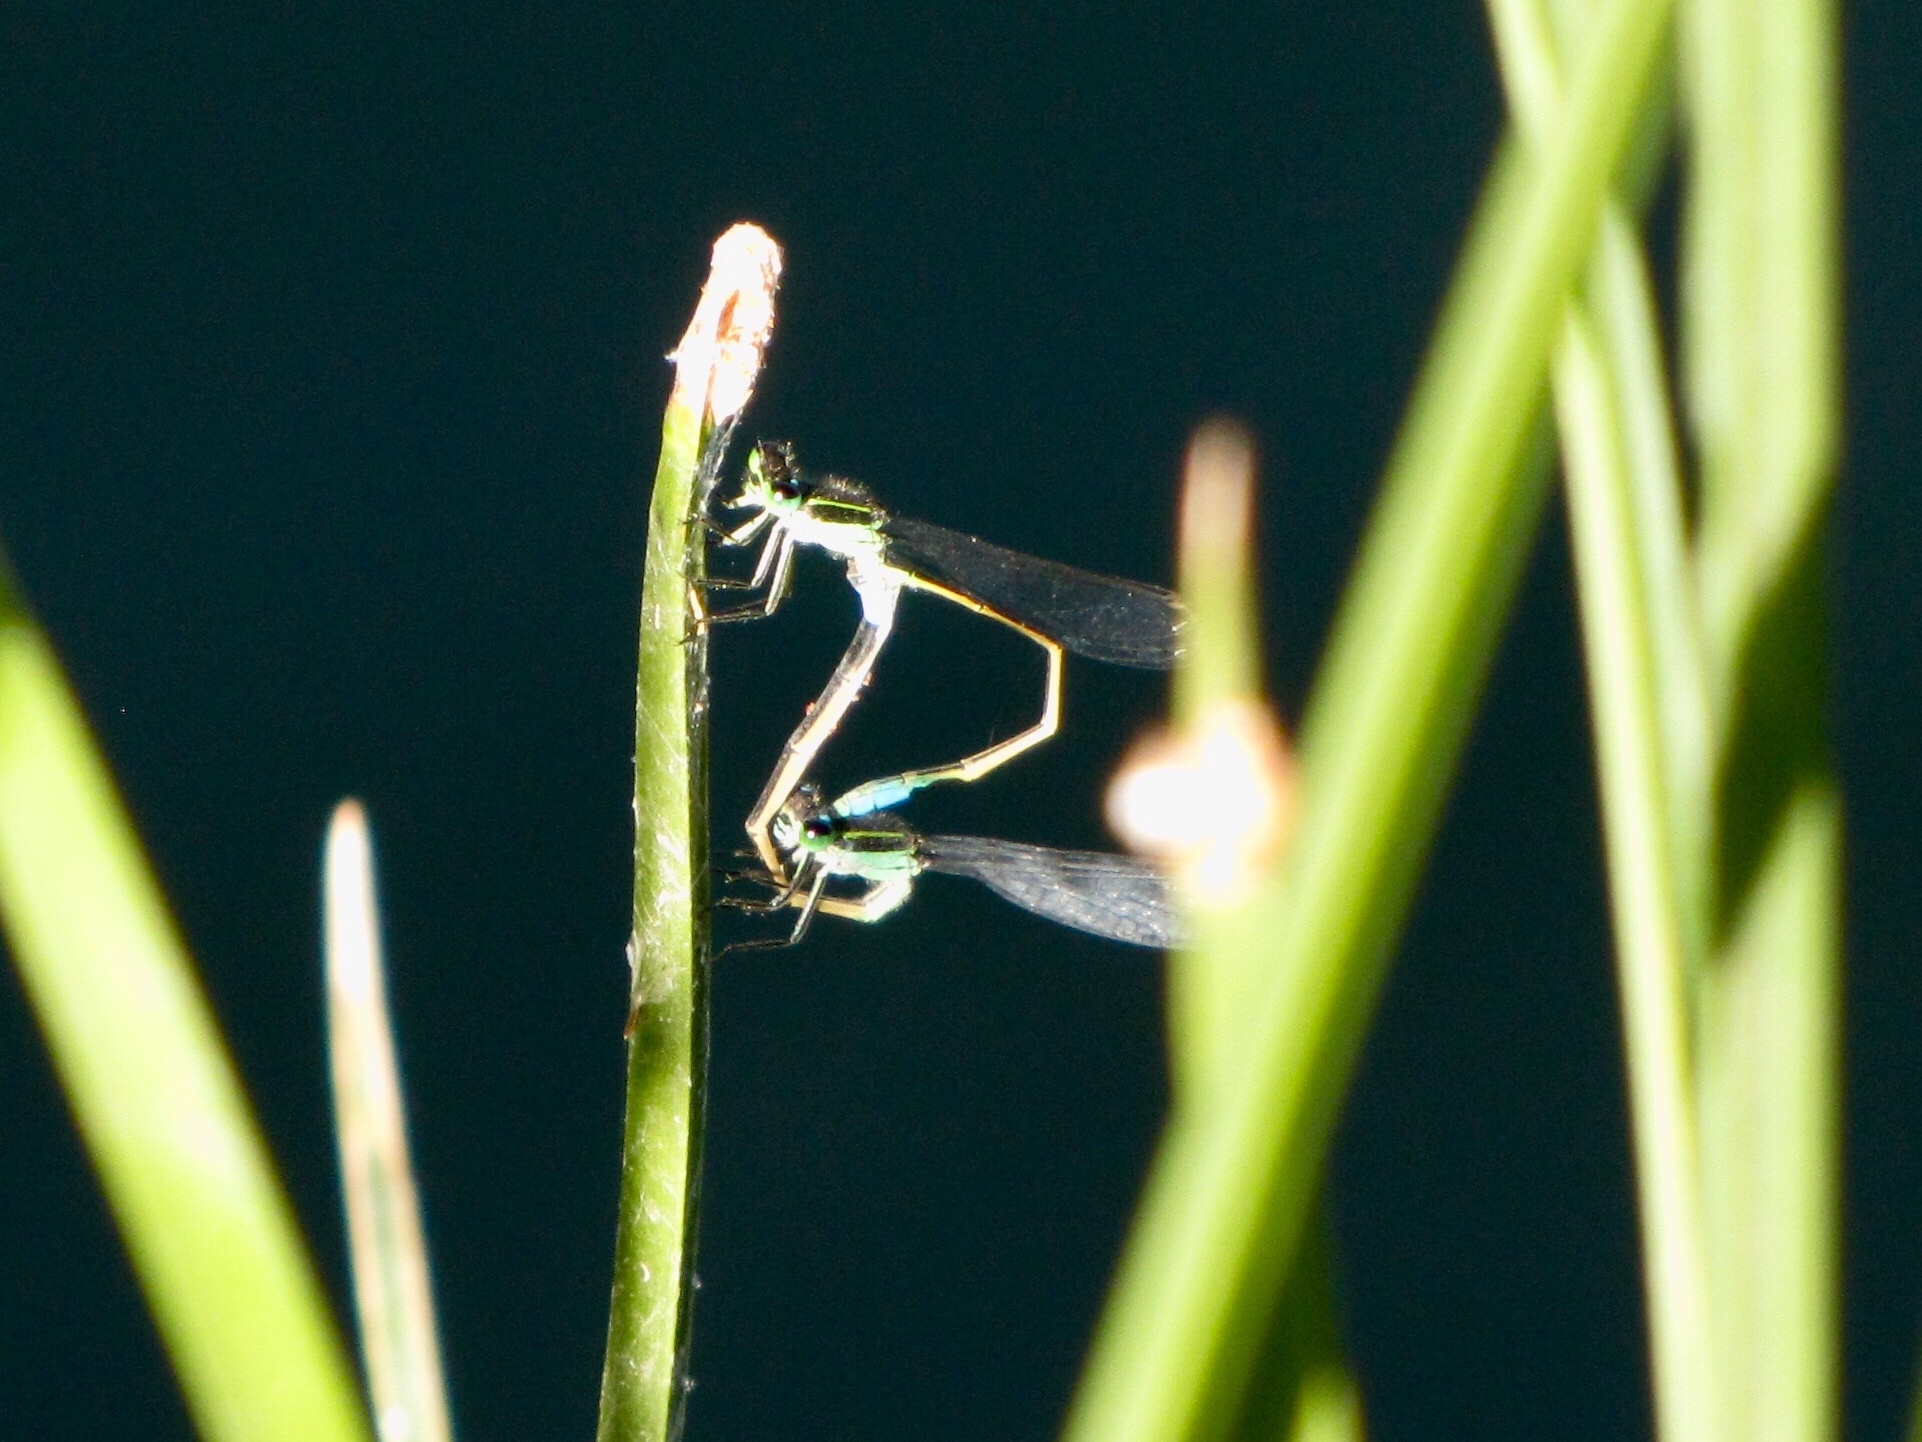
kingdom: Animalia
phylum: Arthropoda
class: Insecta
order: Odonata
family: Coenagrionidae
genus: Ischnura
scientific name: Ischnura ramburii
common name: Rambur's forktail
